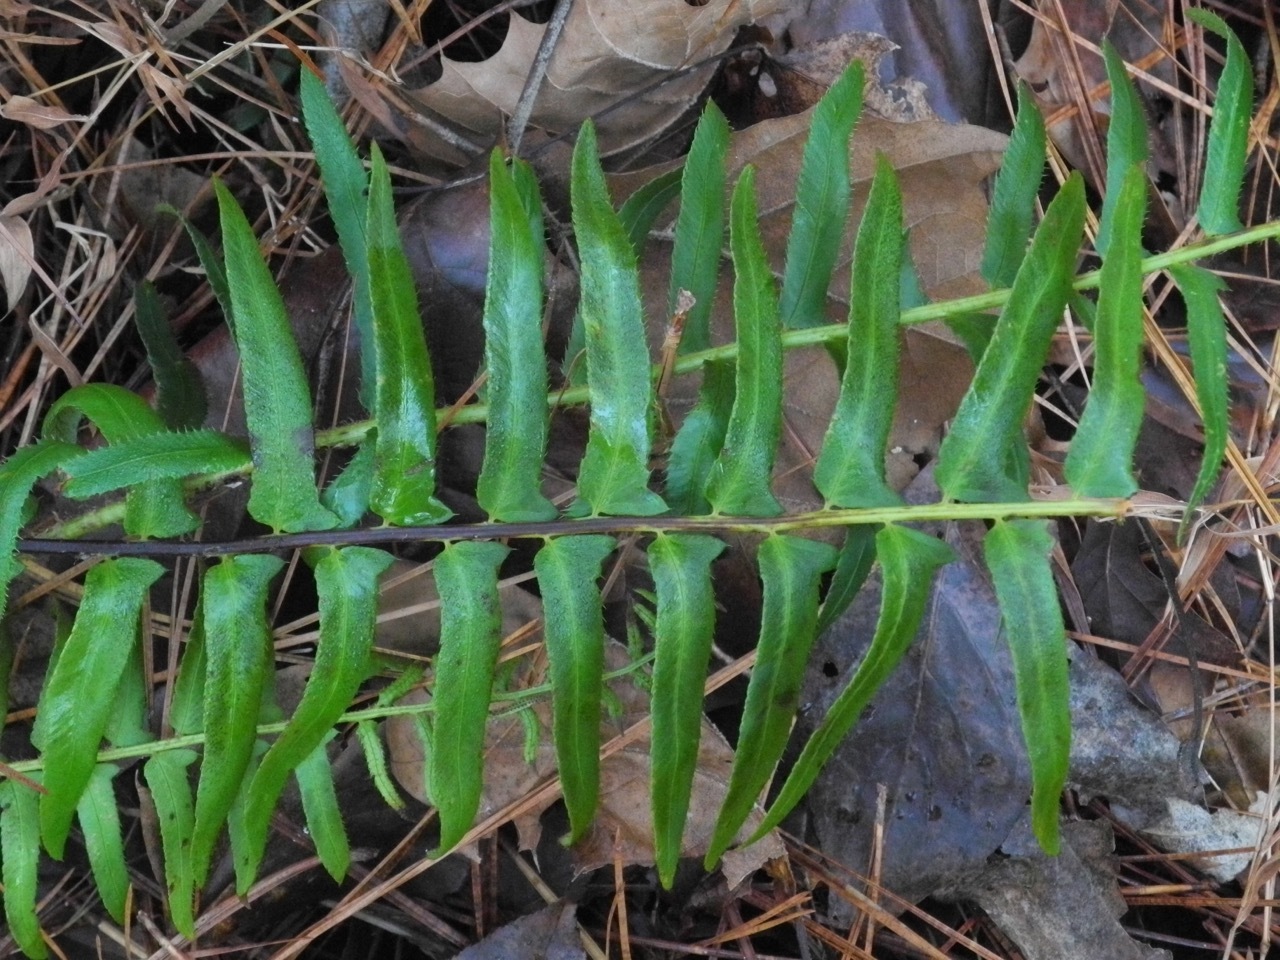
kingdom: Plantae
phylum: Tracheophyta
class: Polypodiopsida
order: Polypodiales
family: Dryopteridaceae
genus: Polystichum
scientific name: Polystichum acrostichoides
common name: Christmas fern
